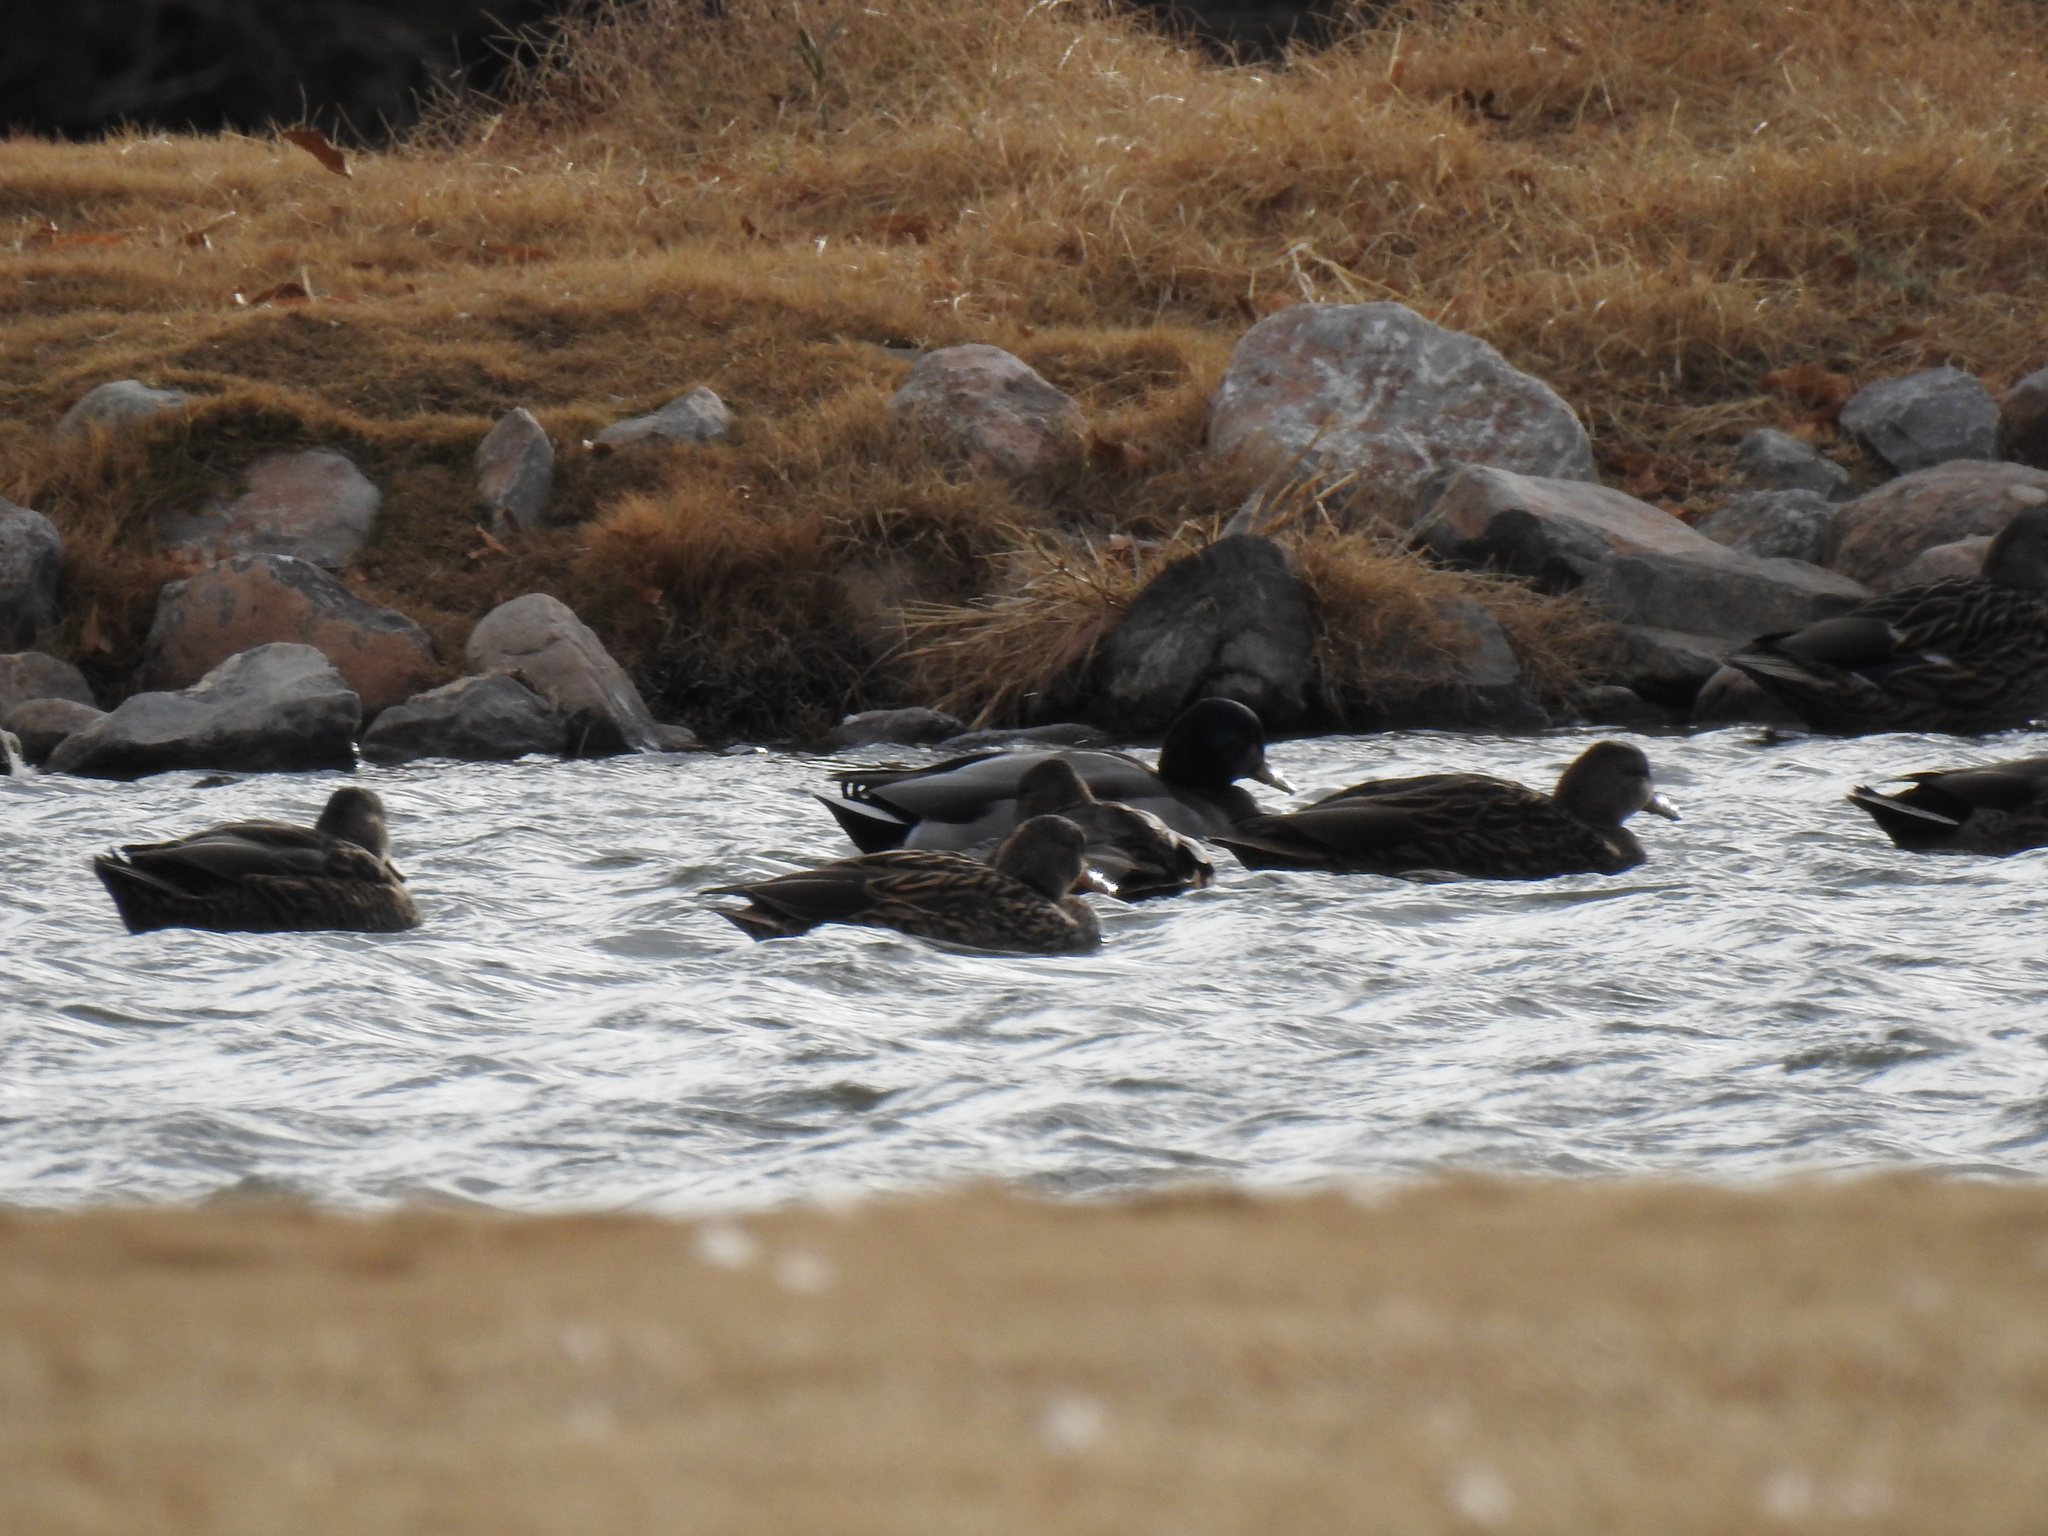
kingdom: Animalia
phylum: Chordata
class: Aves
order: Anseriformes
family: Anatidae
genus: Anas
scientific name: Anas platyrhynchos
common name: Mallard
